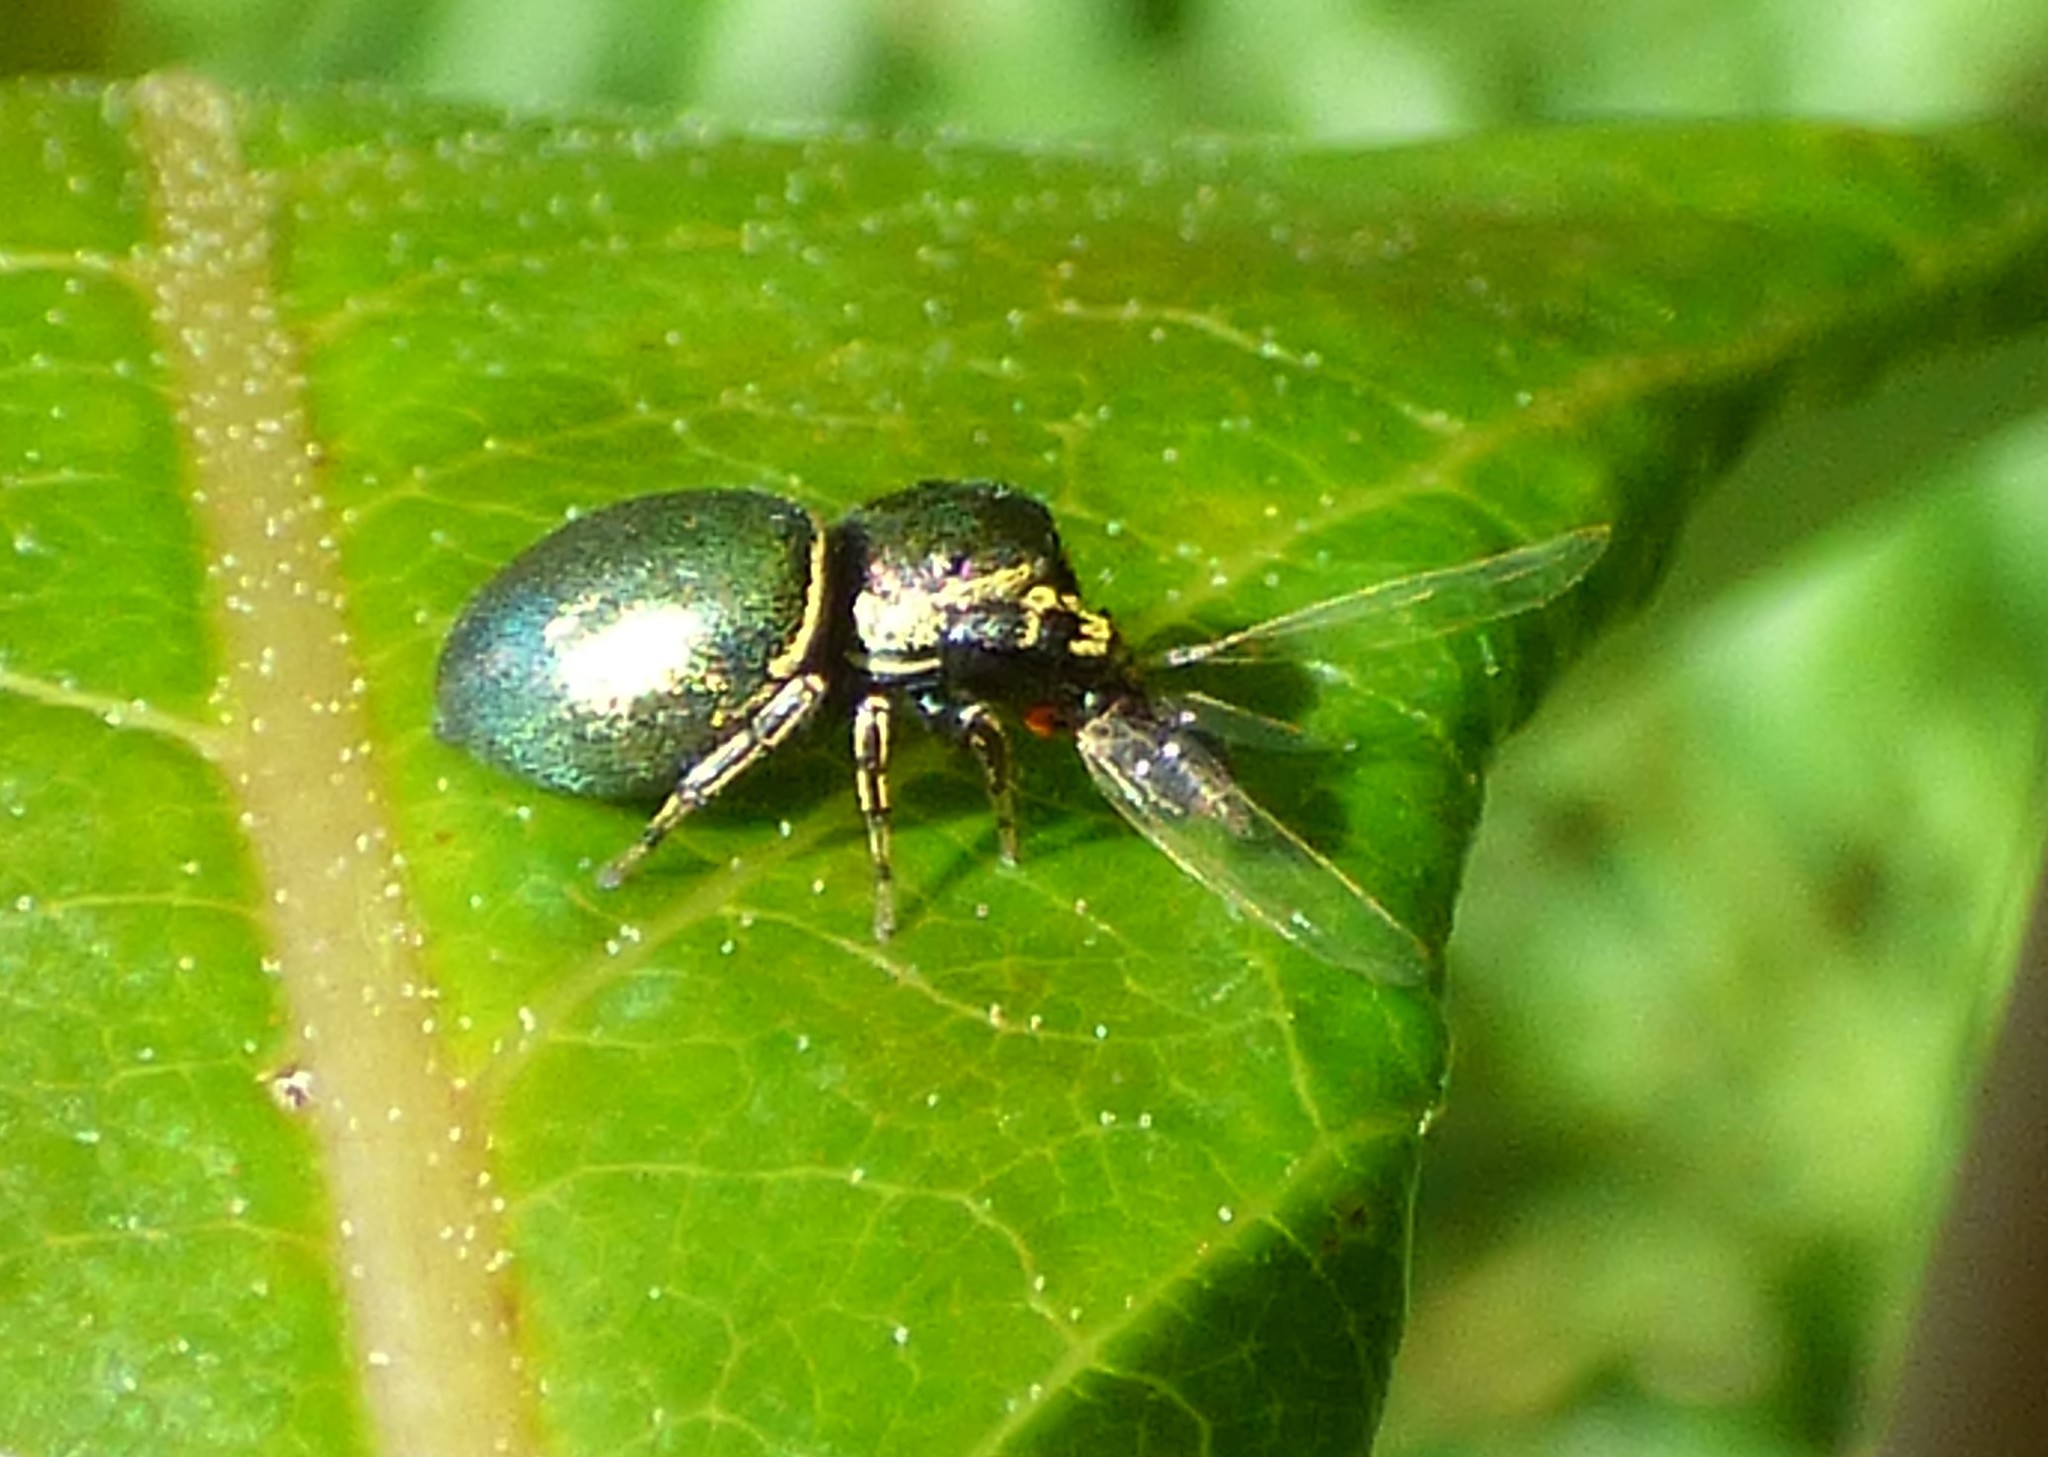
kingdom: Animalia
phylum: Arthropoda
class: Arachnida
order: Araneae
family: Salticidae
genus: Sassacus
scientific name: Sassacus papenhoei
